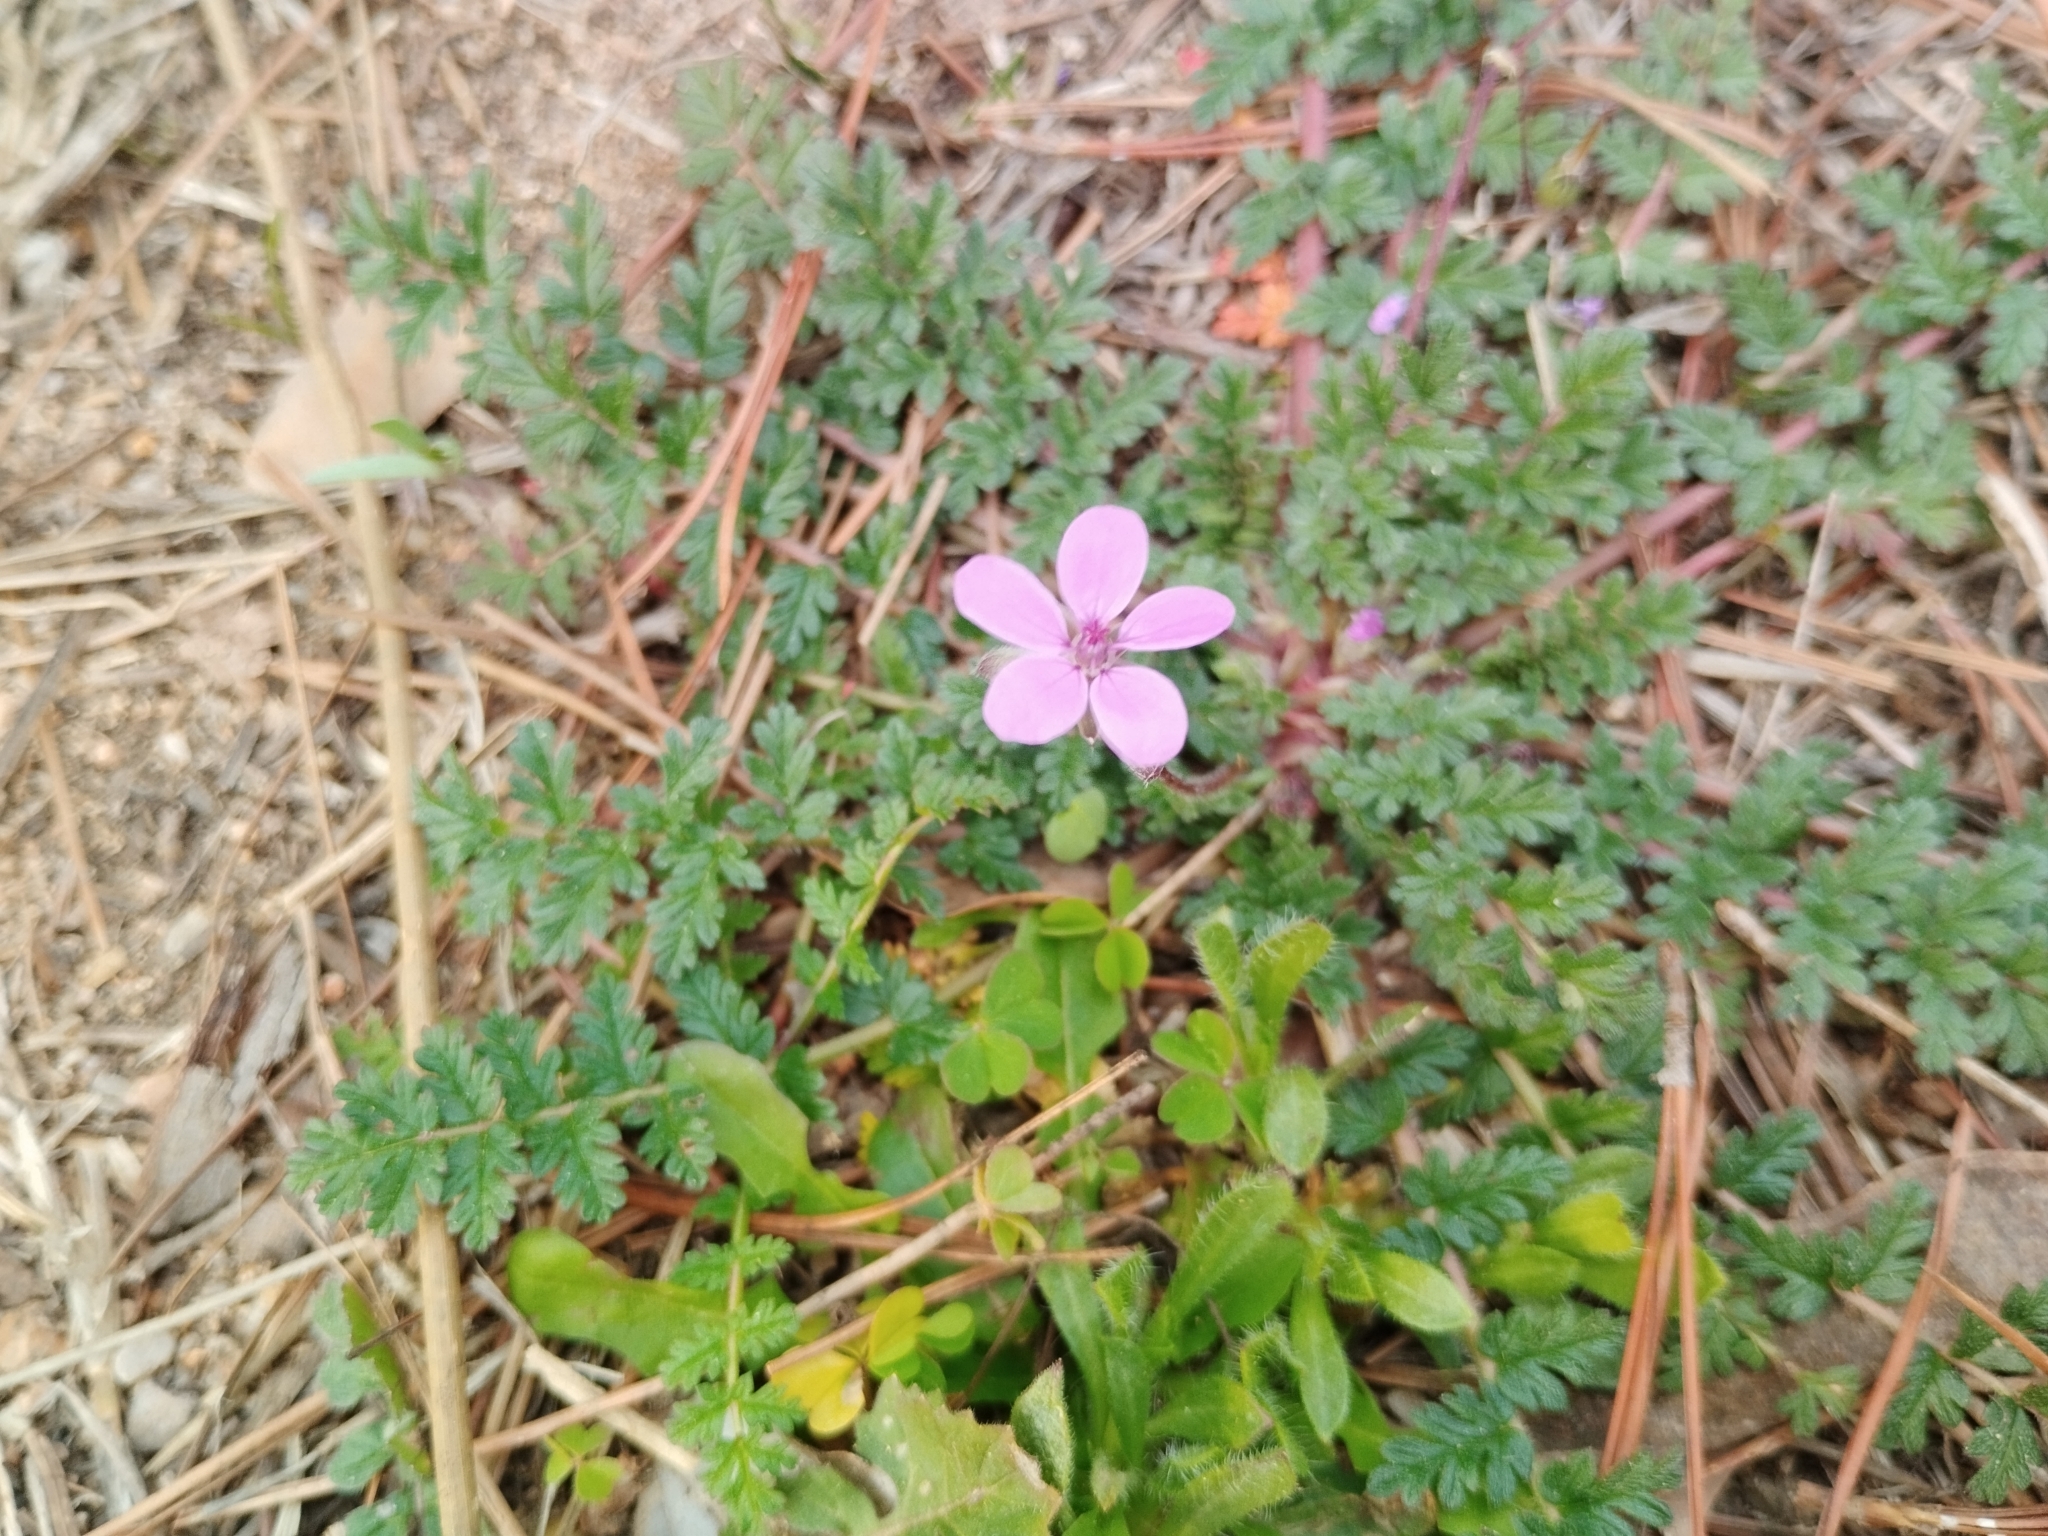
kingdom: Plantae
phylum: Tracheophyta
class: Magnoliopsida
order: Geraniales
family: Geraniaceae
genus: Erodium
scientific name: Erodium cicutarium
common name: Common stork's-bill
